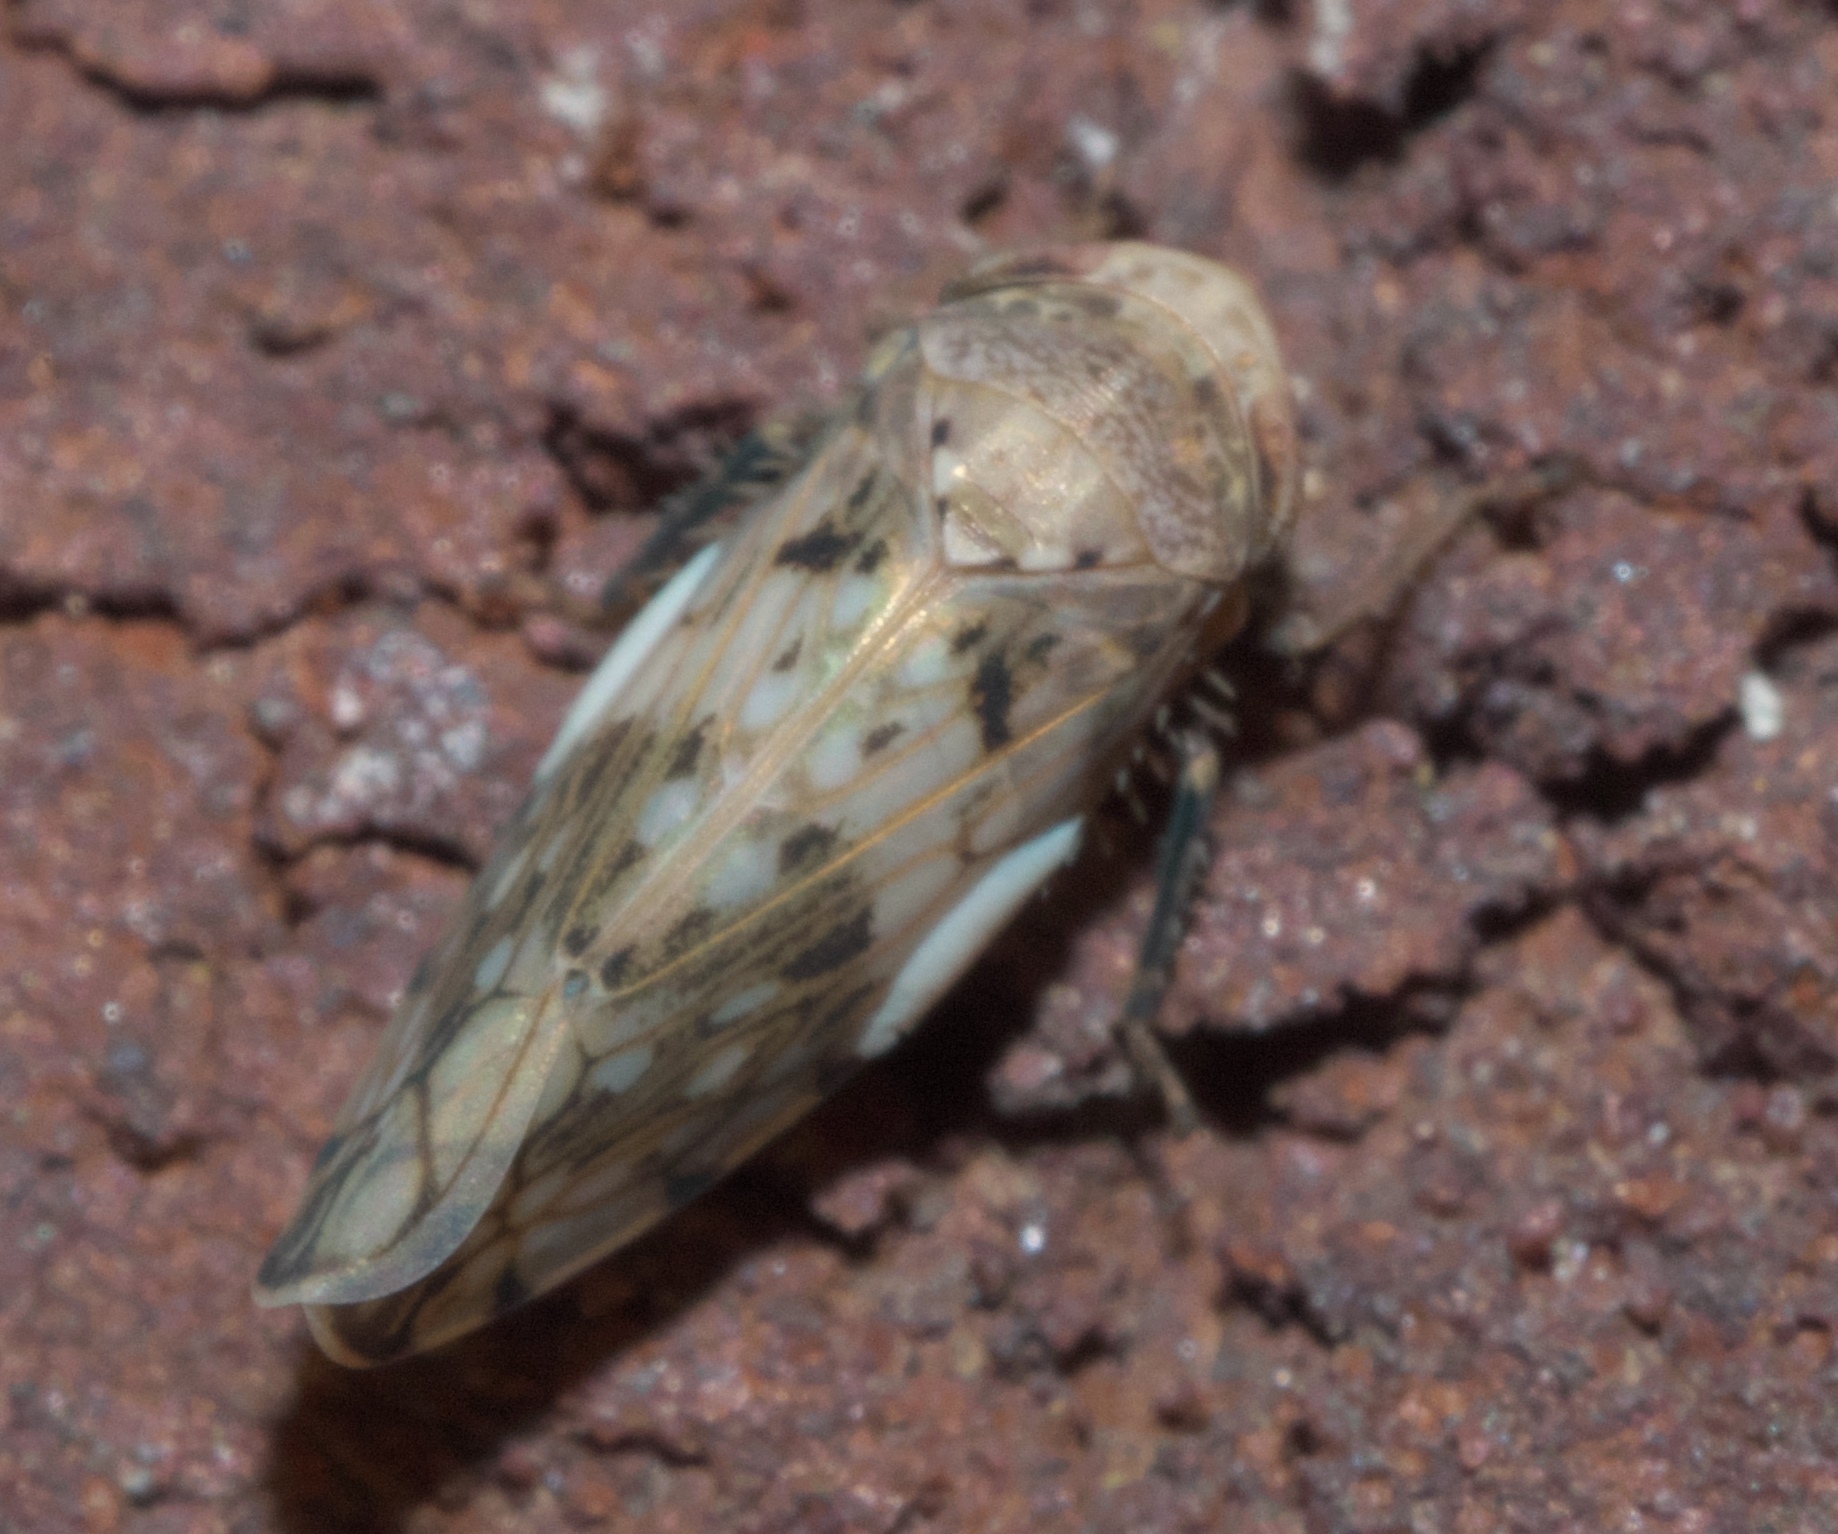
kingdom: Animalia
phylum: Arthropoda
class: Insecta
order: Hemiptera
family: Cicadellidae
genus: Menosoma
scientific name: Menosoma cinctum
